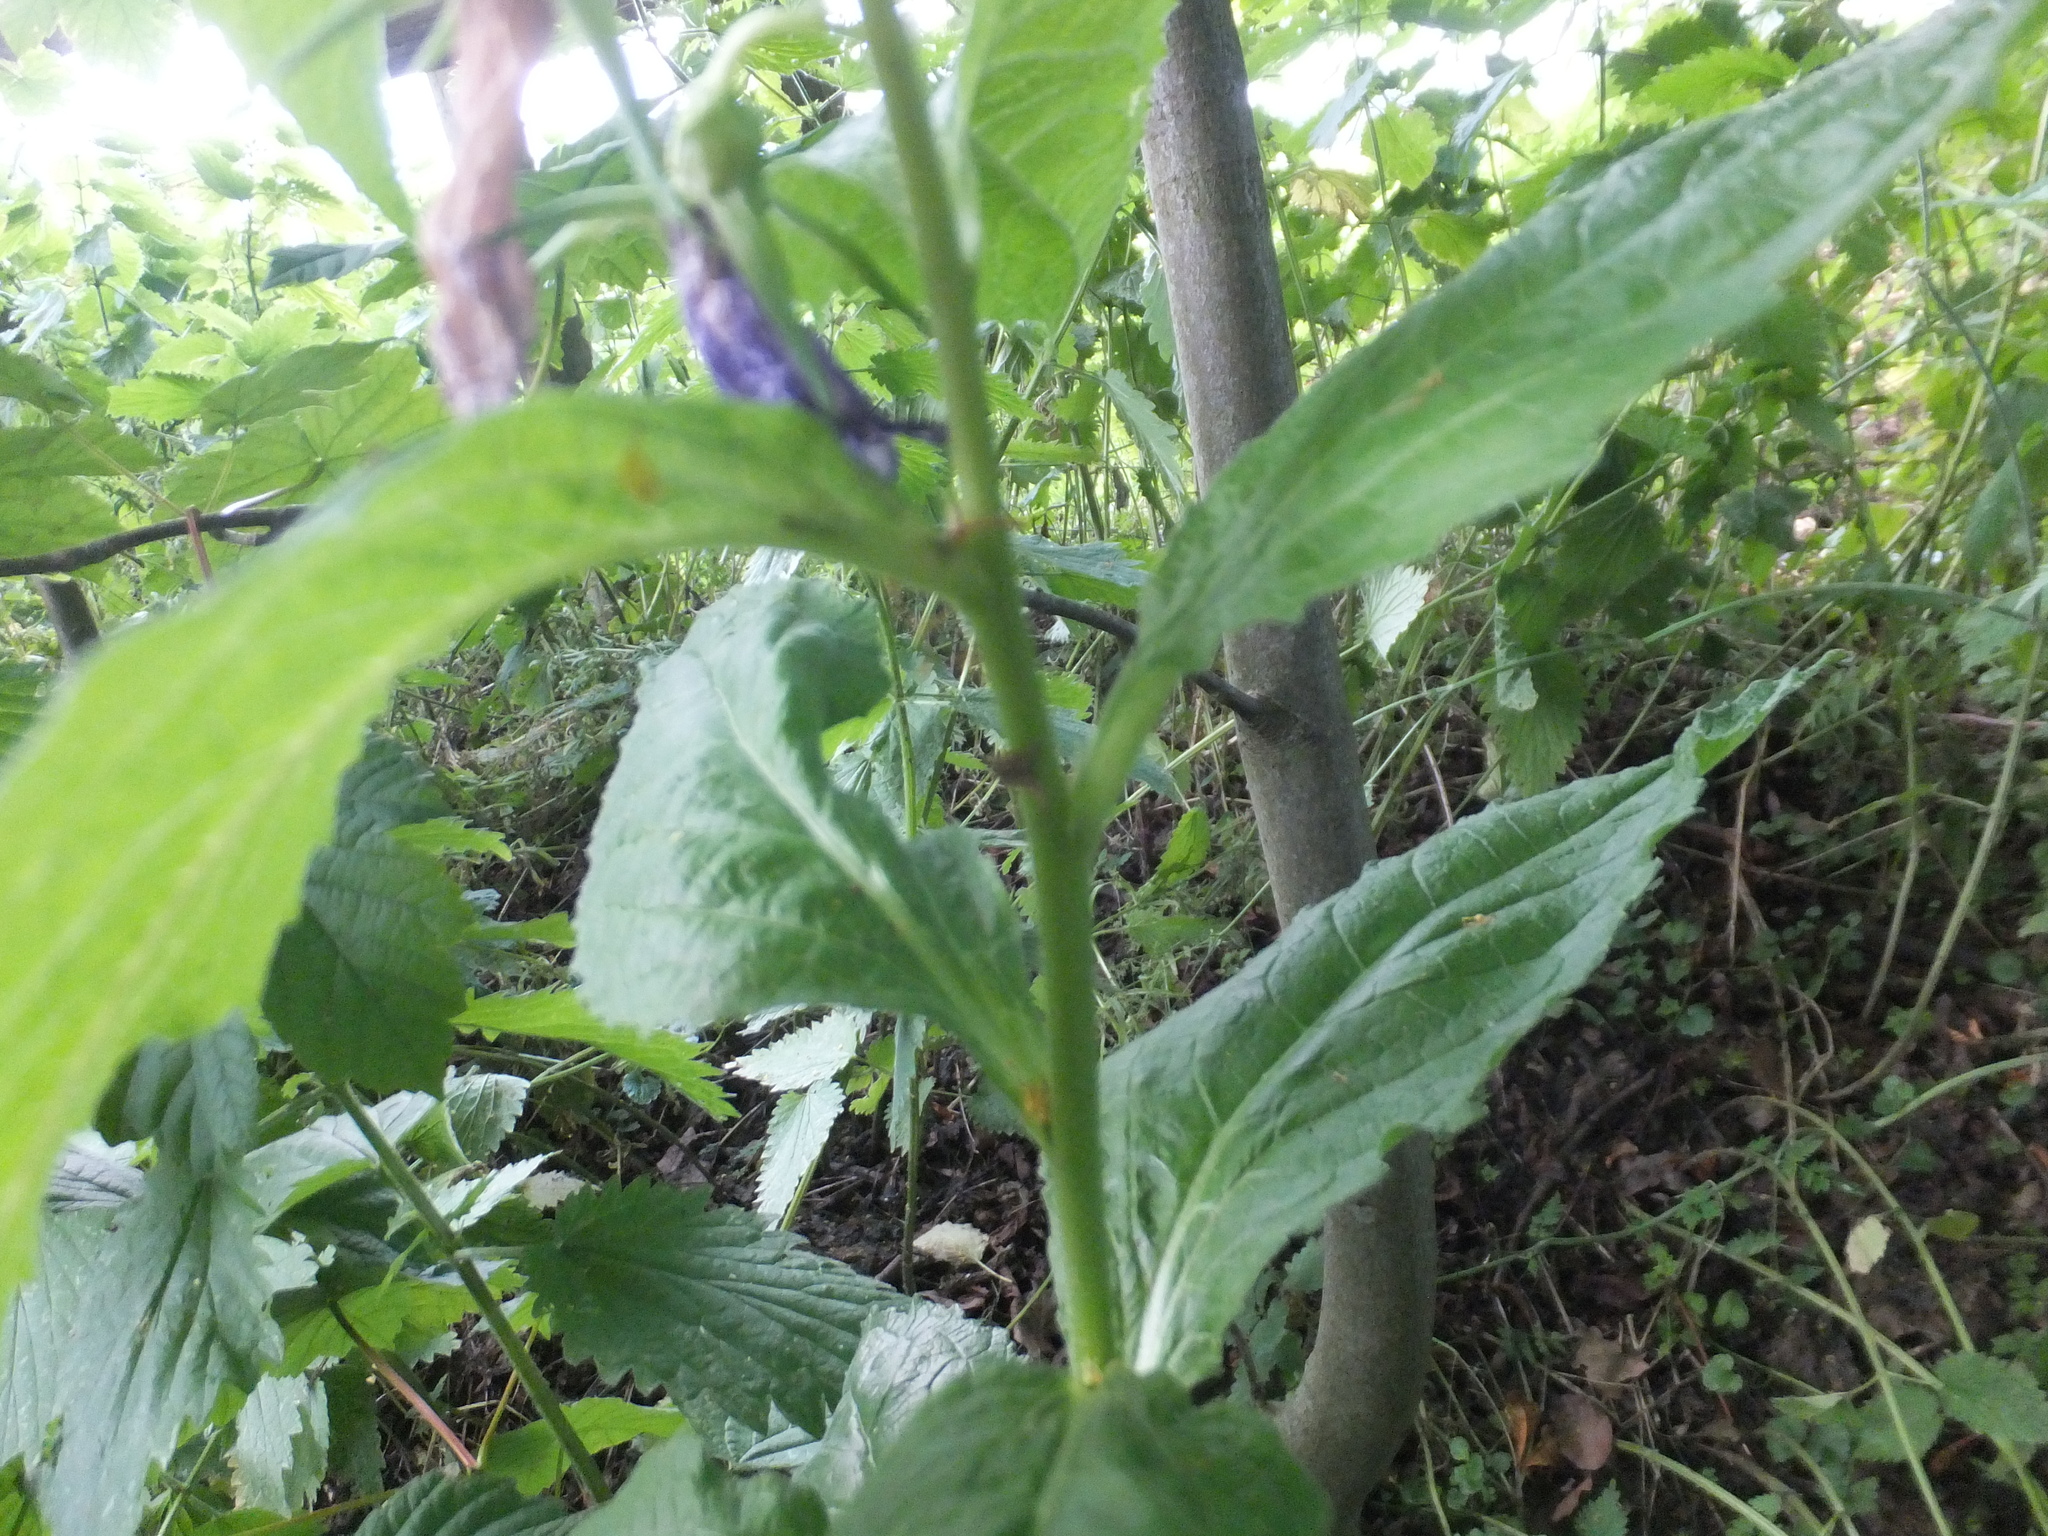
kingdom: Plantae
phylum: Tracheophyta
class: Magnoliopsida
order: Asterales
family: Campanulaceae
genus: Campanula
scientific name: Campanula latifolia
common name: Giant bellflower
